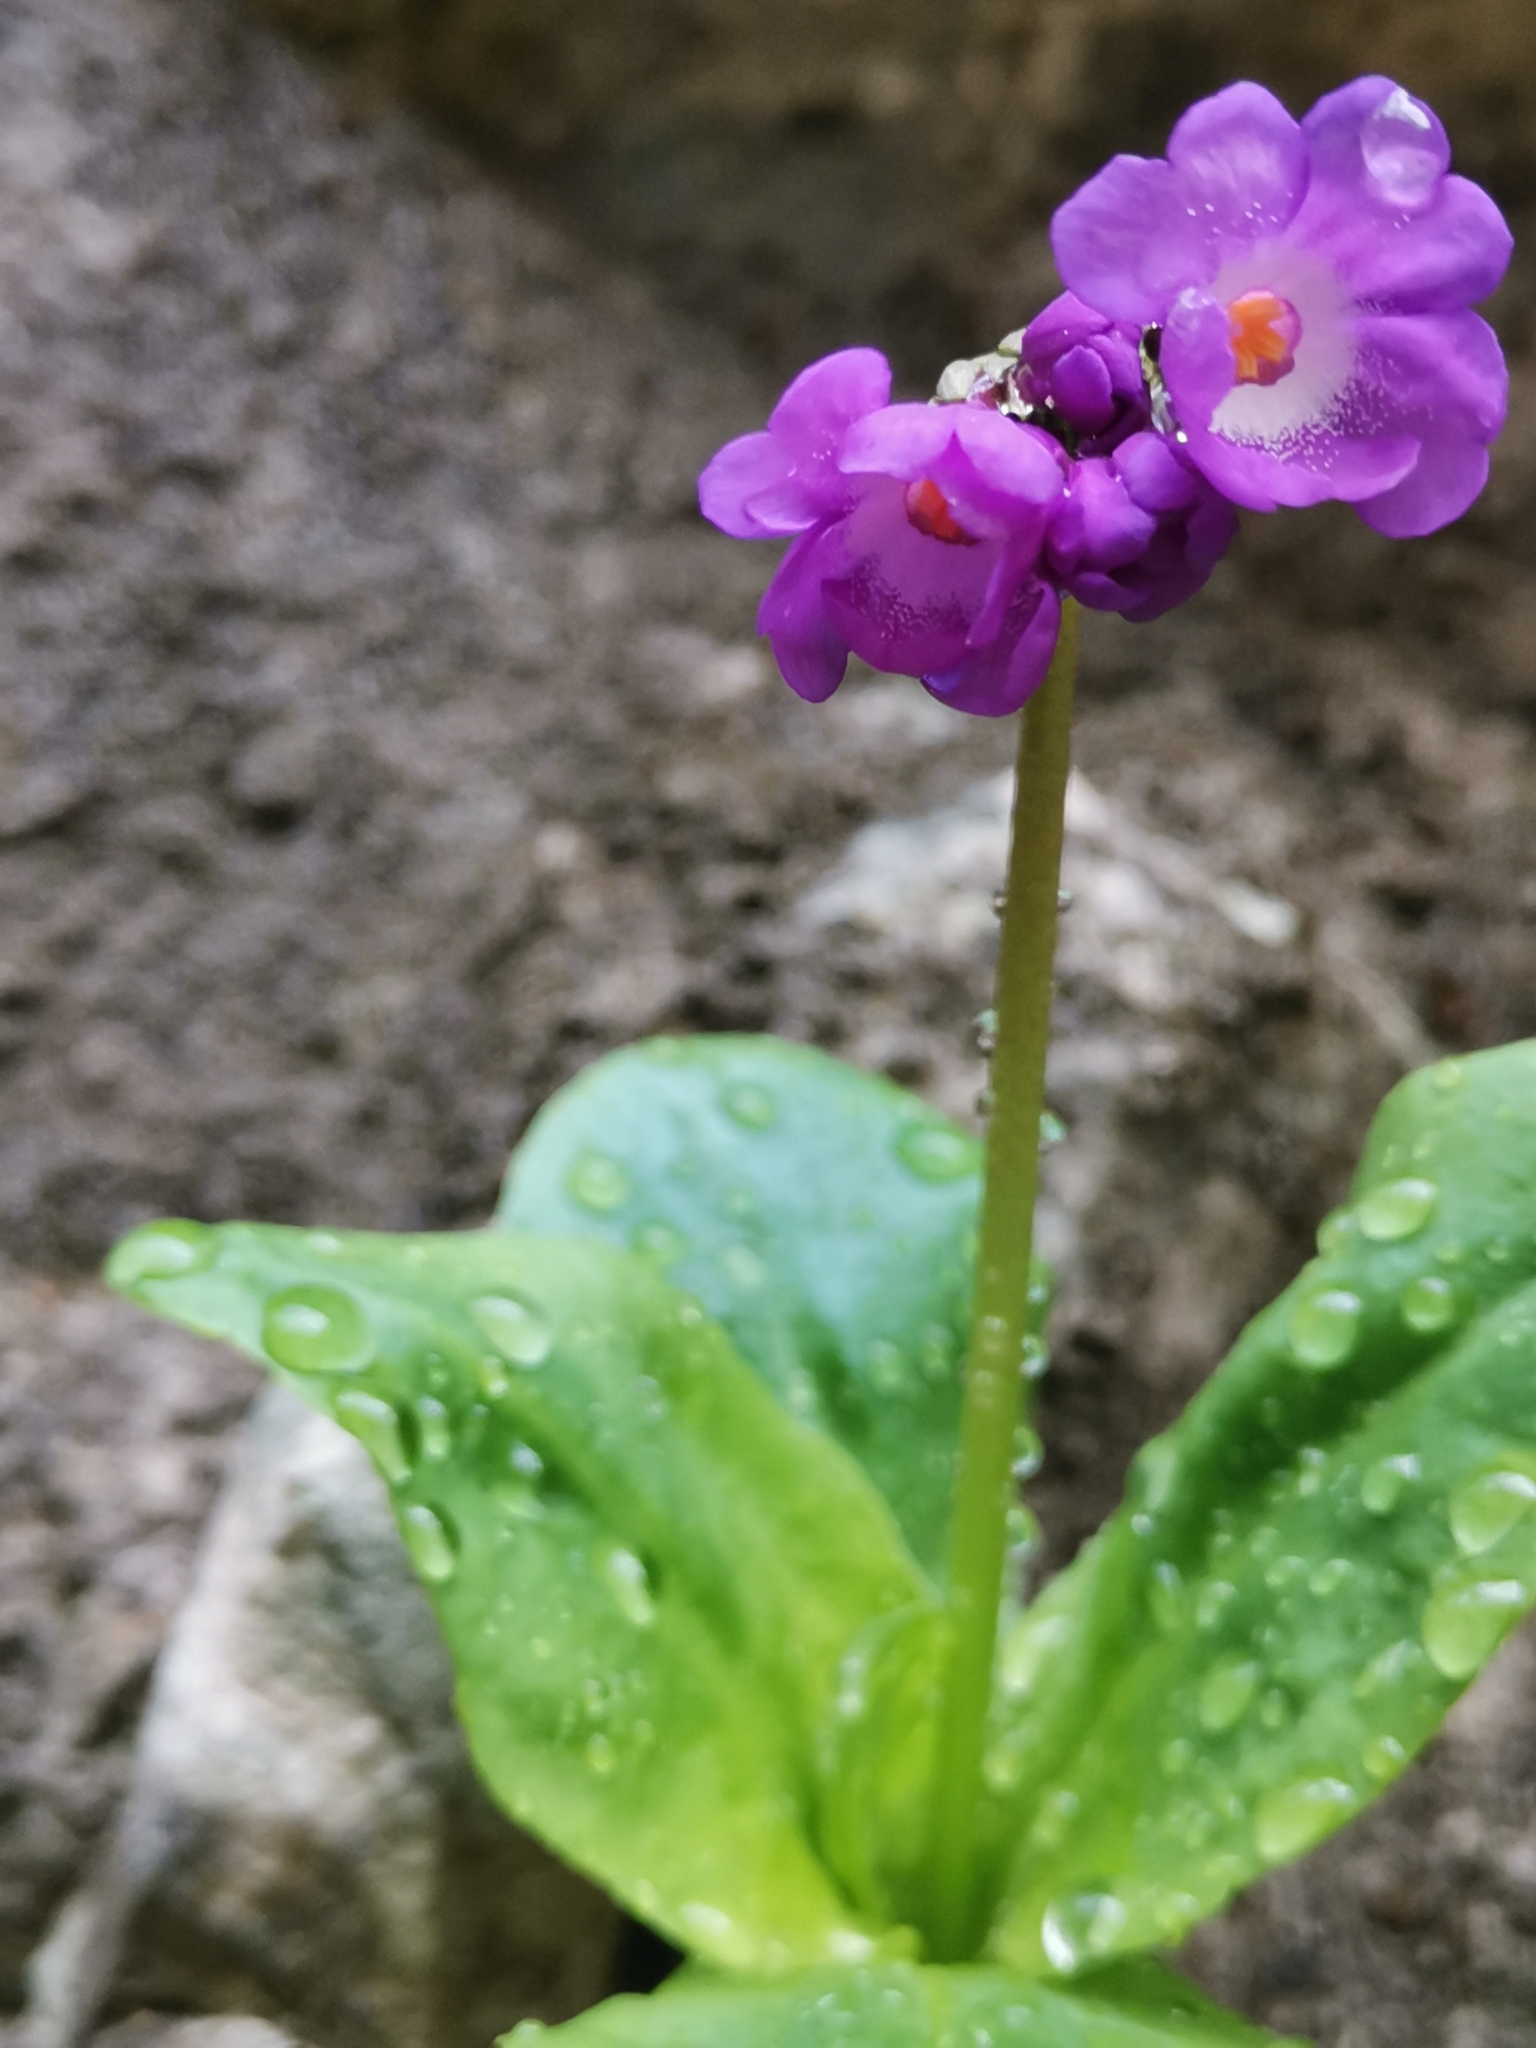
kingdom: Plantae
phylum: Tracheophyta
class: Magnoliopsida
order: Ericales
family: Primulaceae
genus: Primula
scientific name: Primula carniolica
